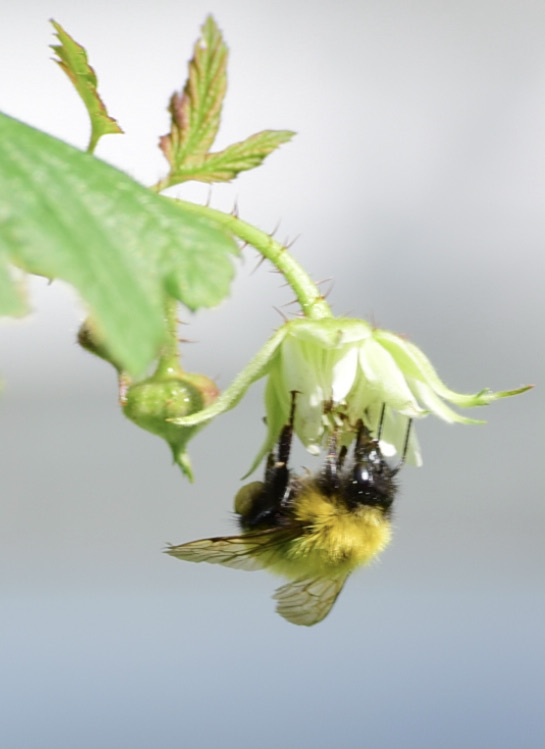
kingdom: Animalia
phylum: Arthropoda
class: Insecta
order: Hymenoptera
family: Apidae
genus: Bombus
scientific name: Bombus perplexus
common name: Confusing bumble bee
